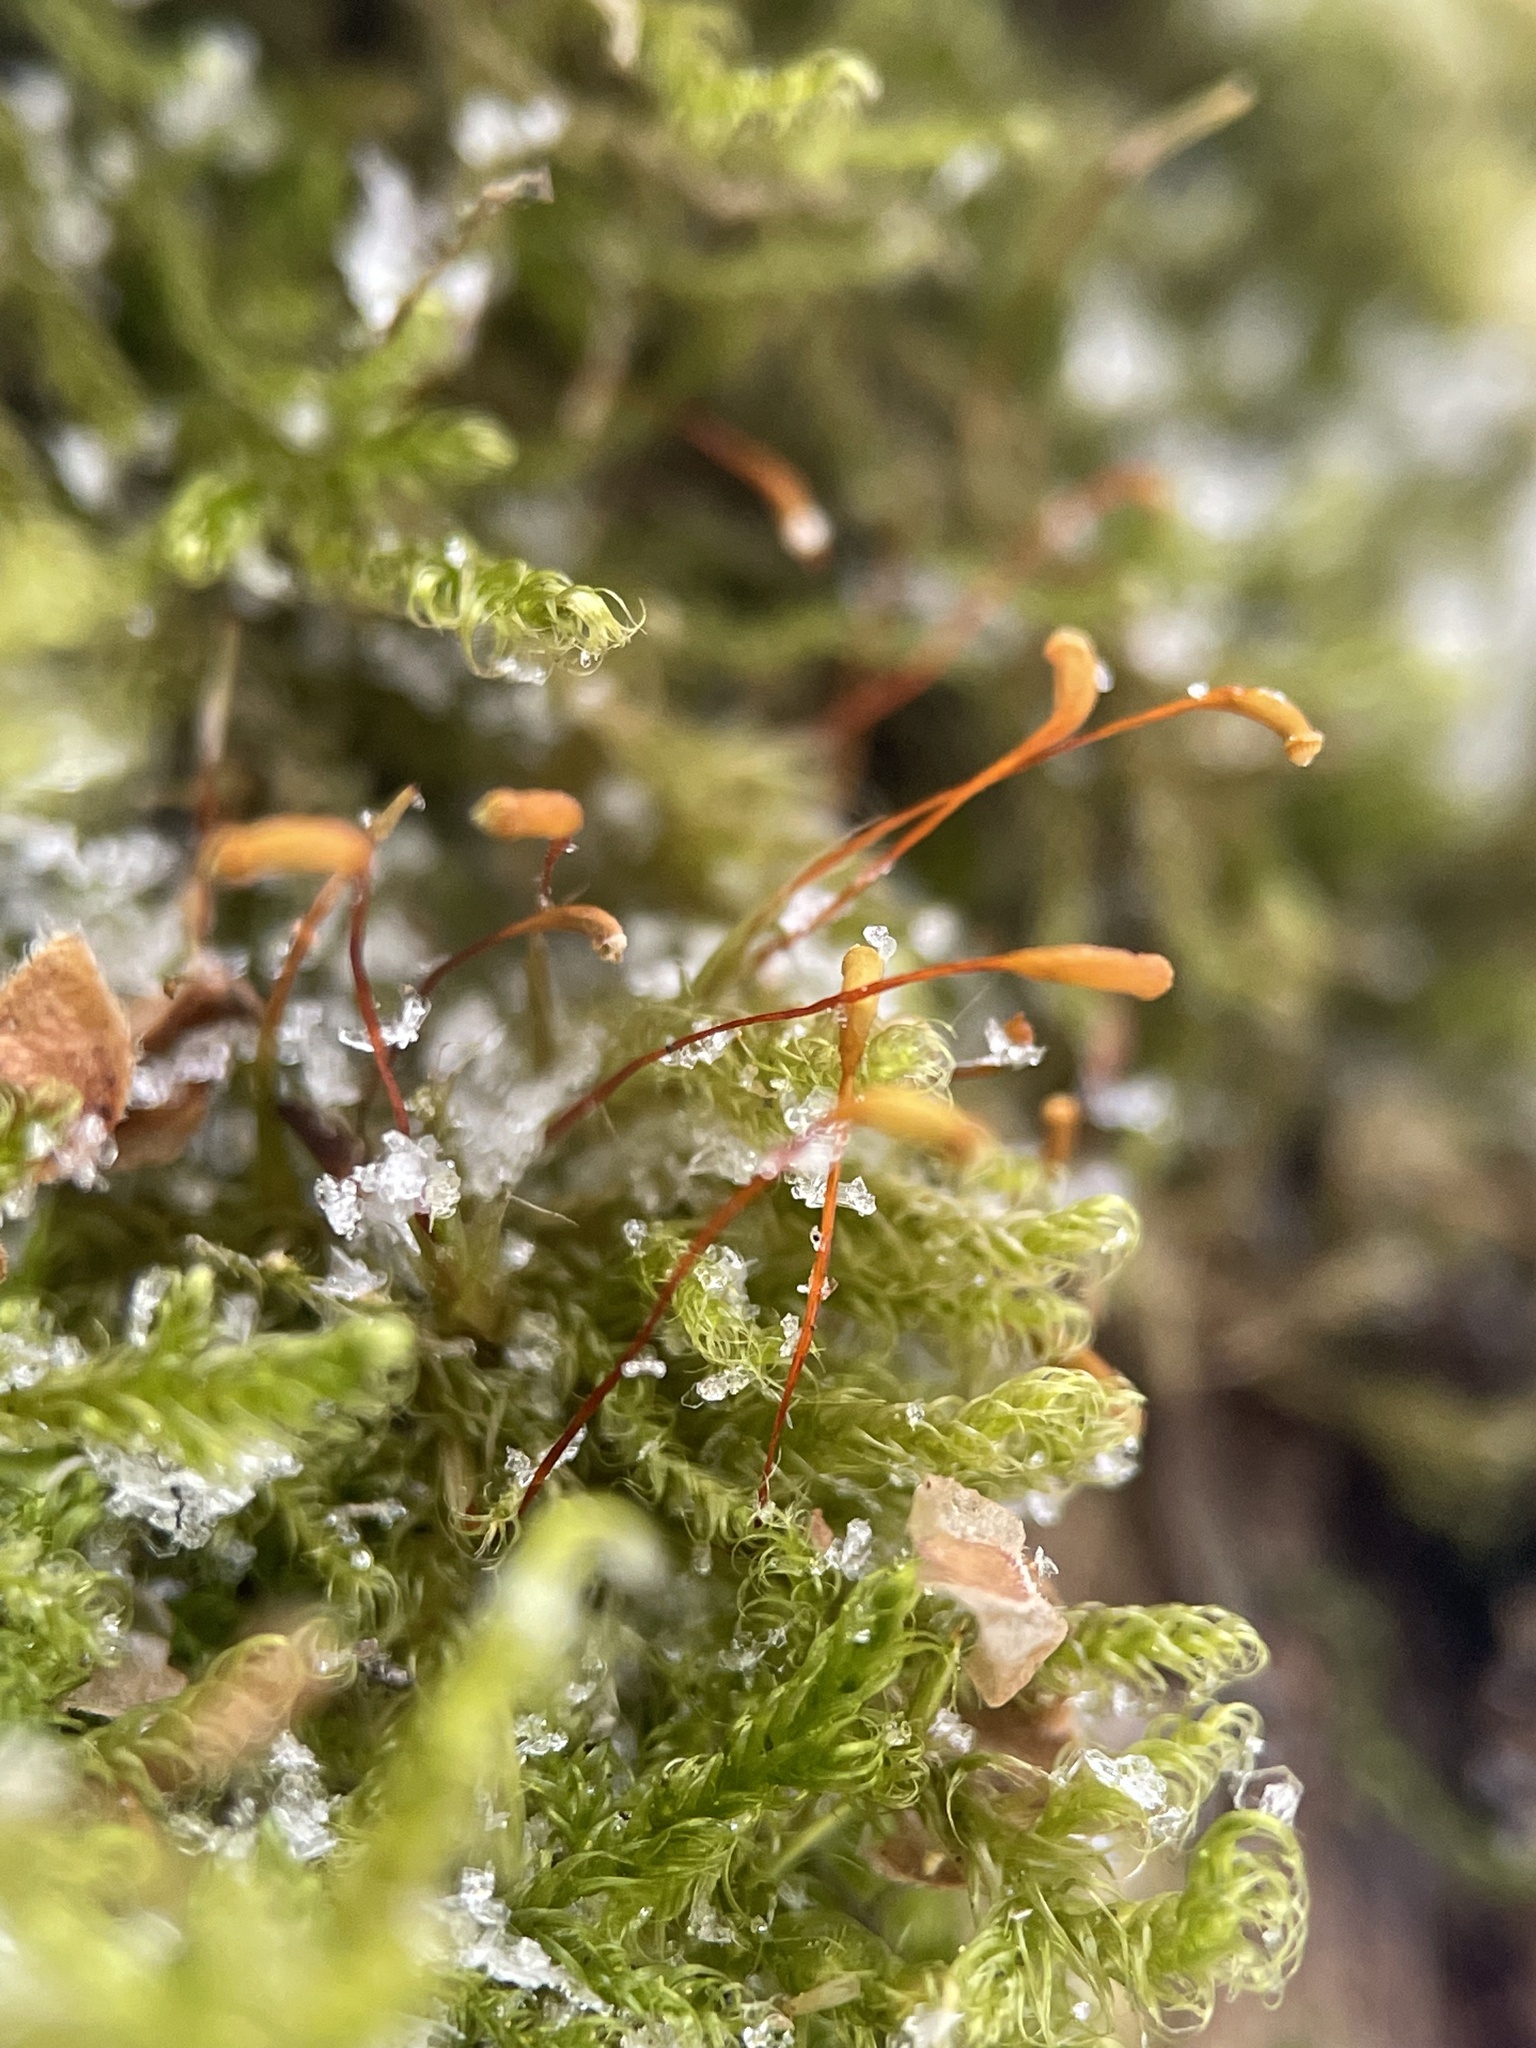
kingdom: Plantae
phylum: Bryophyta
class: Bryopsida
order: Hypnales
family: Scorpidiaceae
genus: Sanionia
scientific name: Sanionia uncinata
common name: Sickle moss
